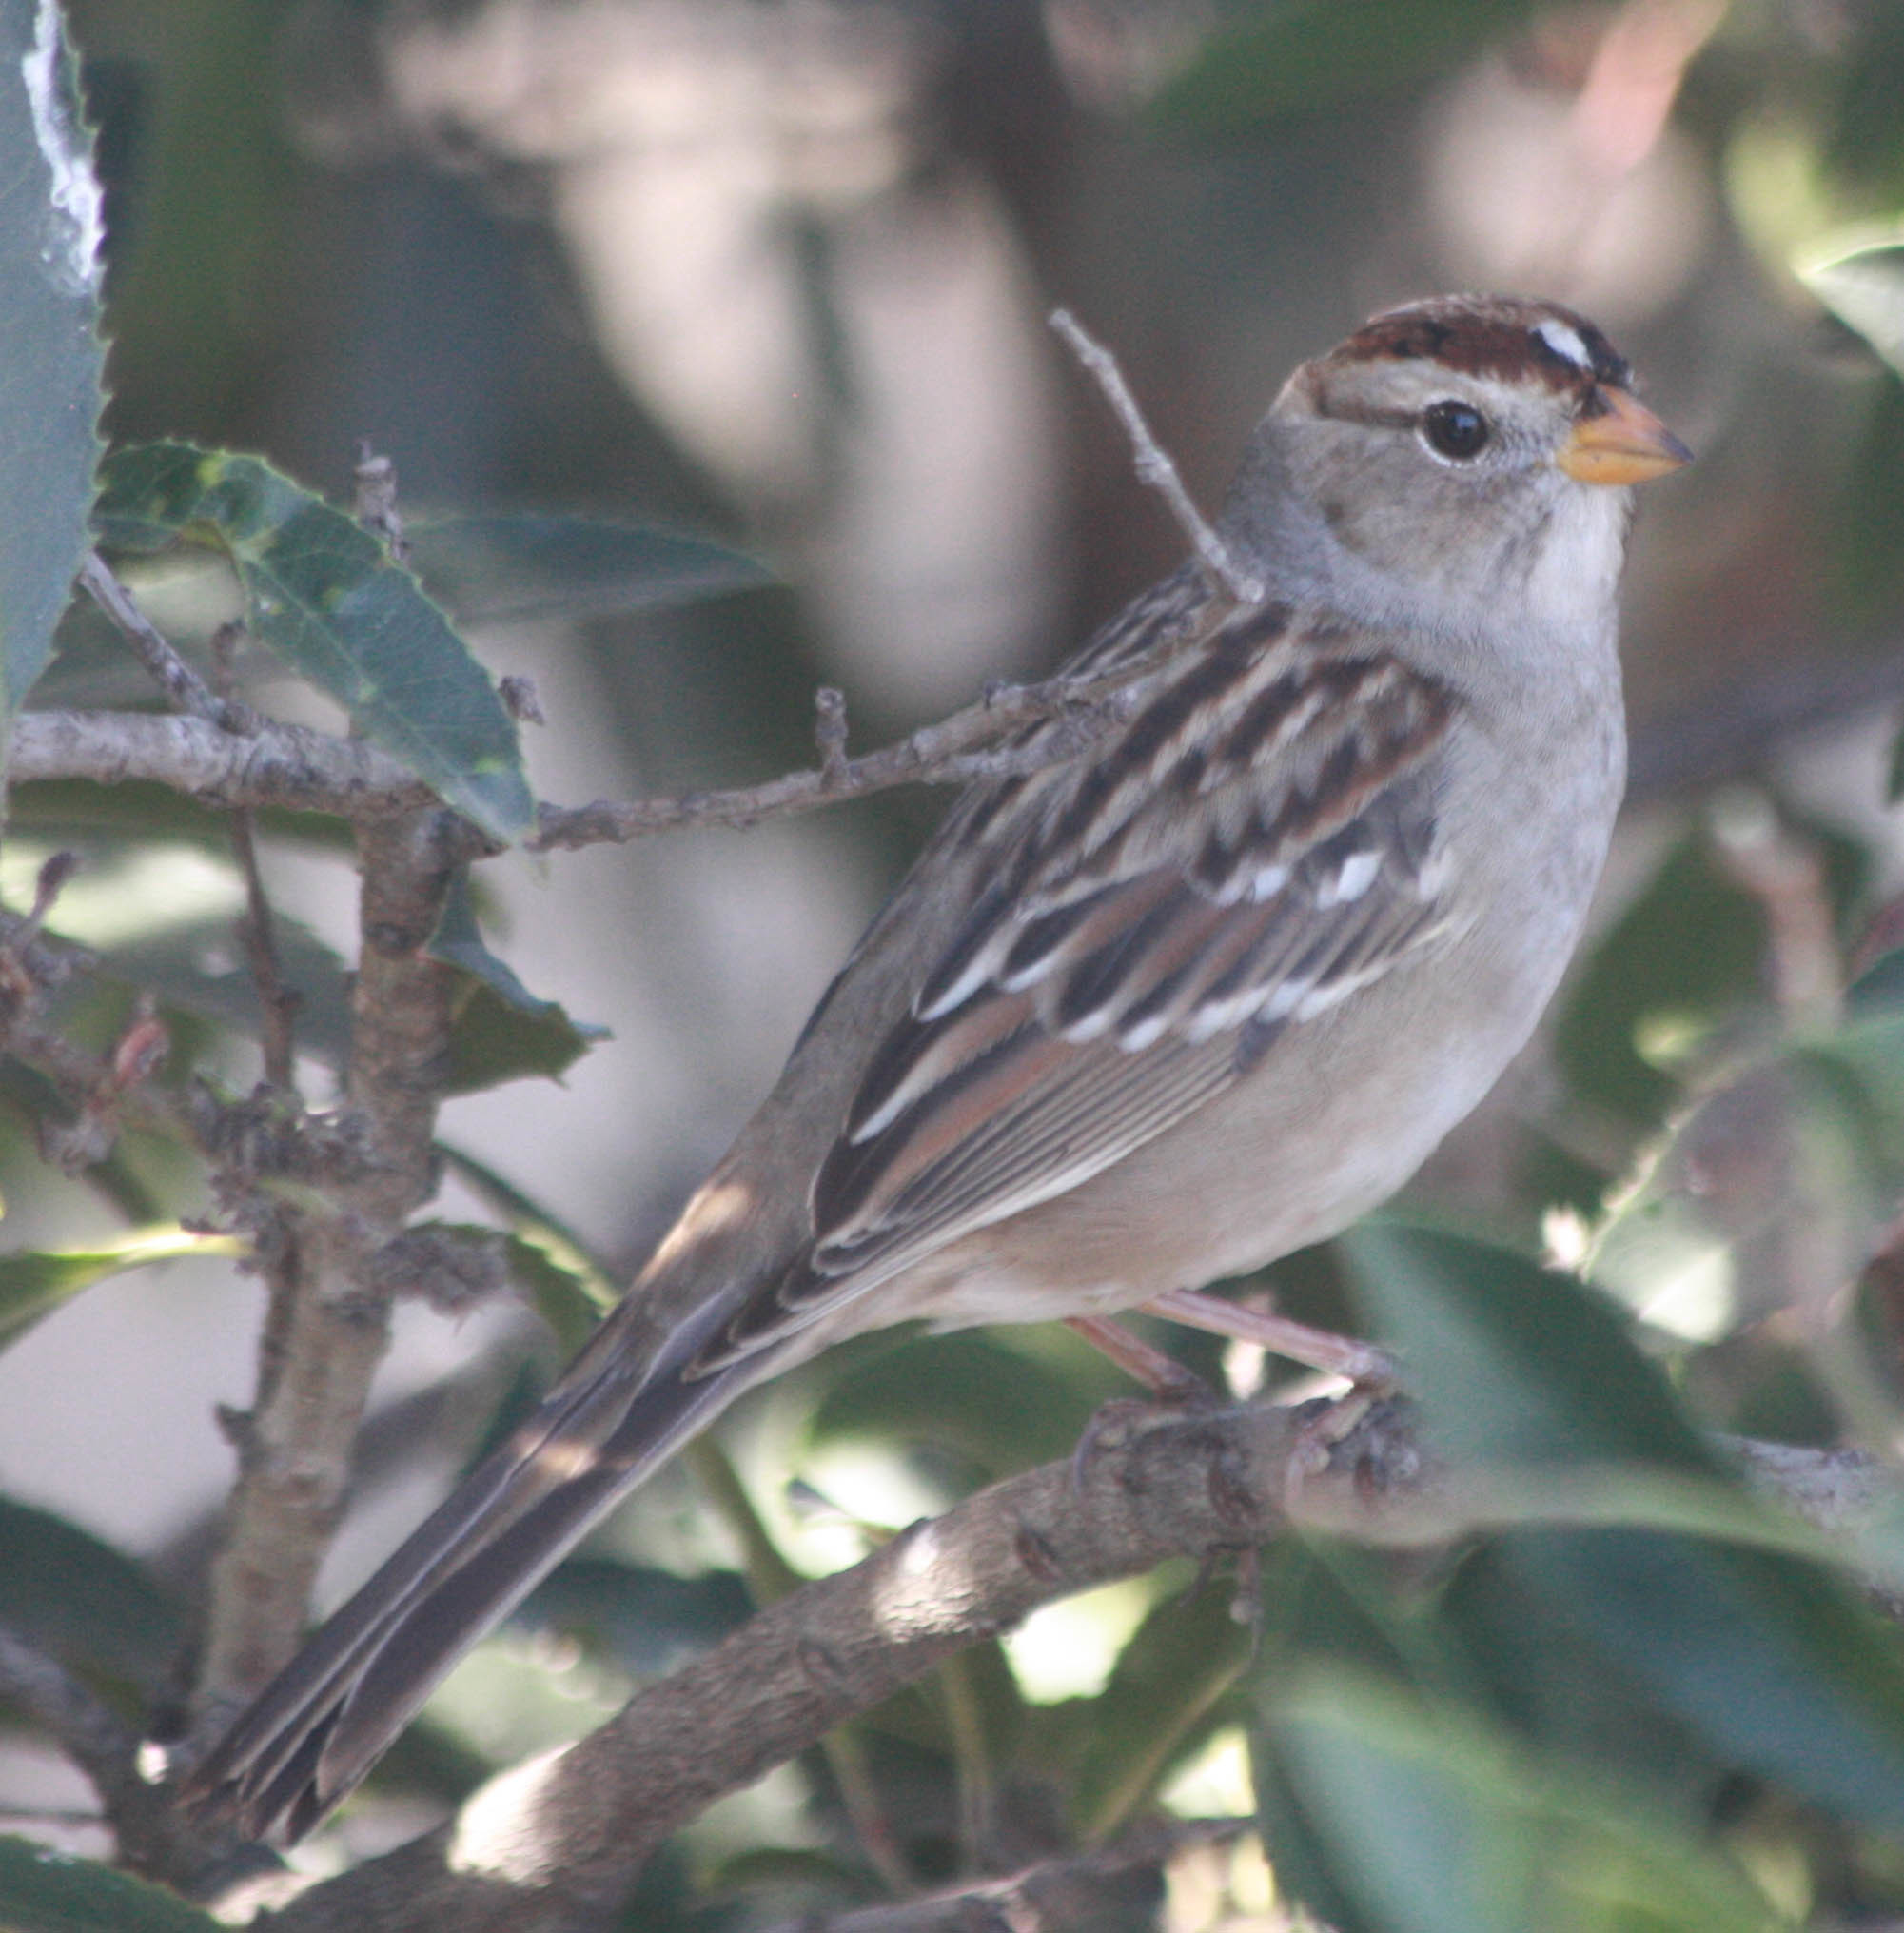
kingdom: Animalia
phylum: Chordata
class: Aves
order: Passeriformes
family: Passerellidae
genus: Zonotrichia
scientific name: Zonotrichia leucophrys
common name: White-crowned sparrow
